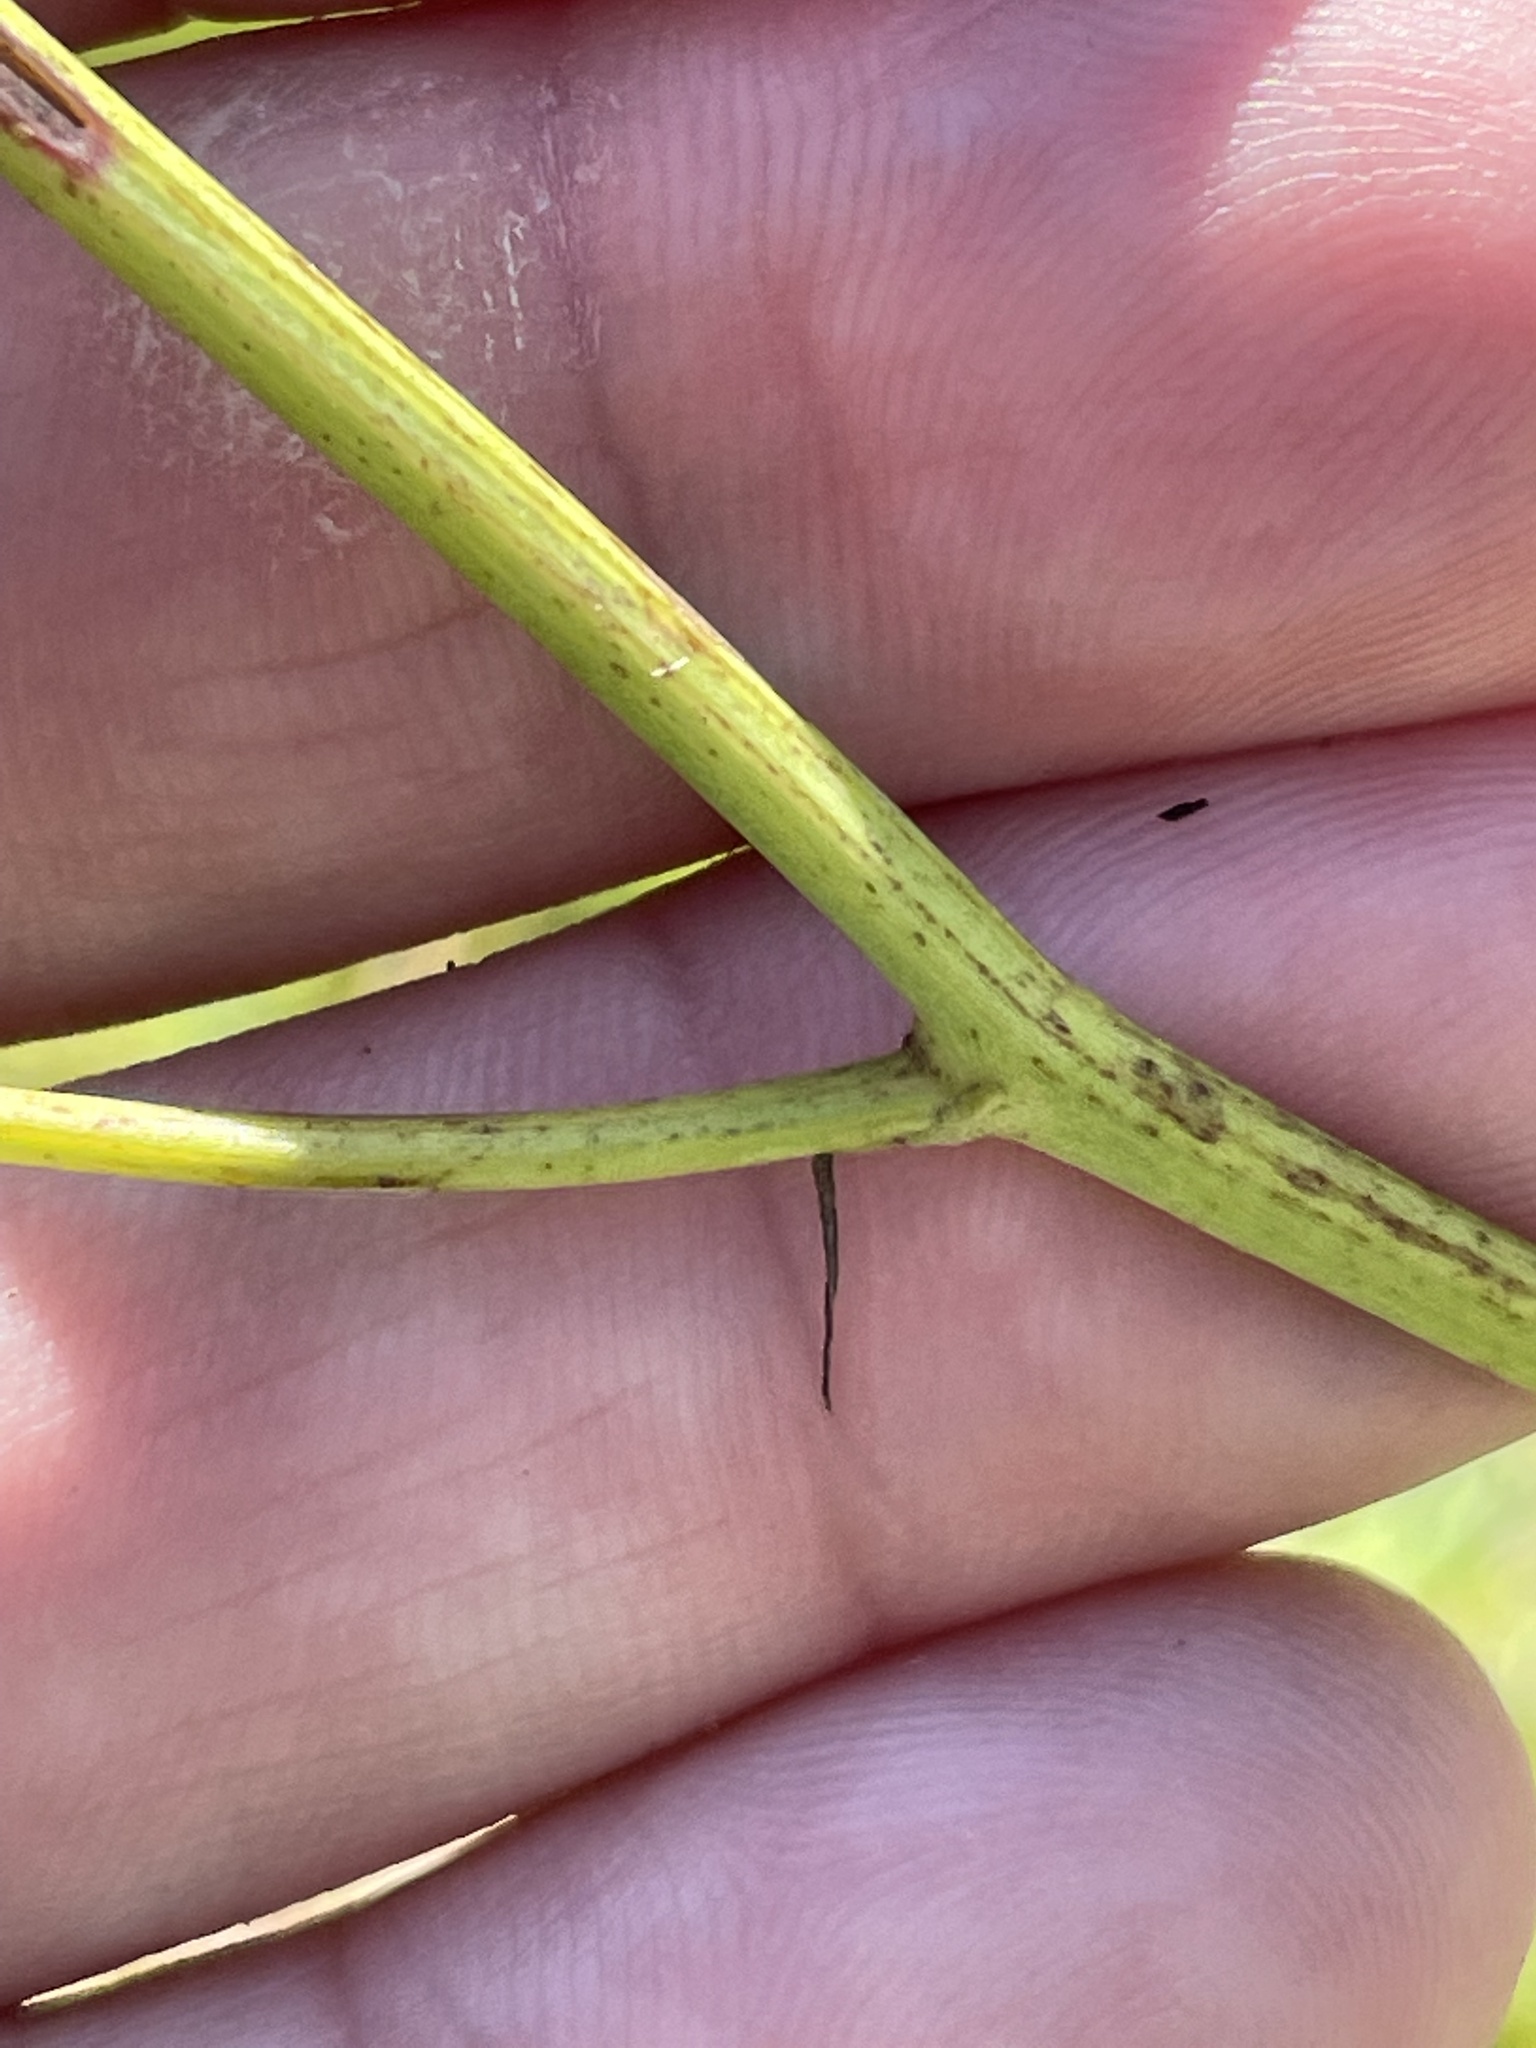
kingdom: Plantae
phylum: Tracheophyta
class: Magnoliopsida
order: Asterales
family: Asteraceae
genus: Lactuca
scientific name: Lactuca graminifolia
